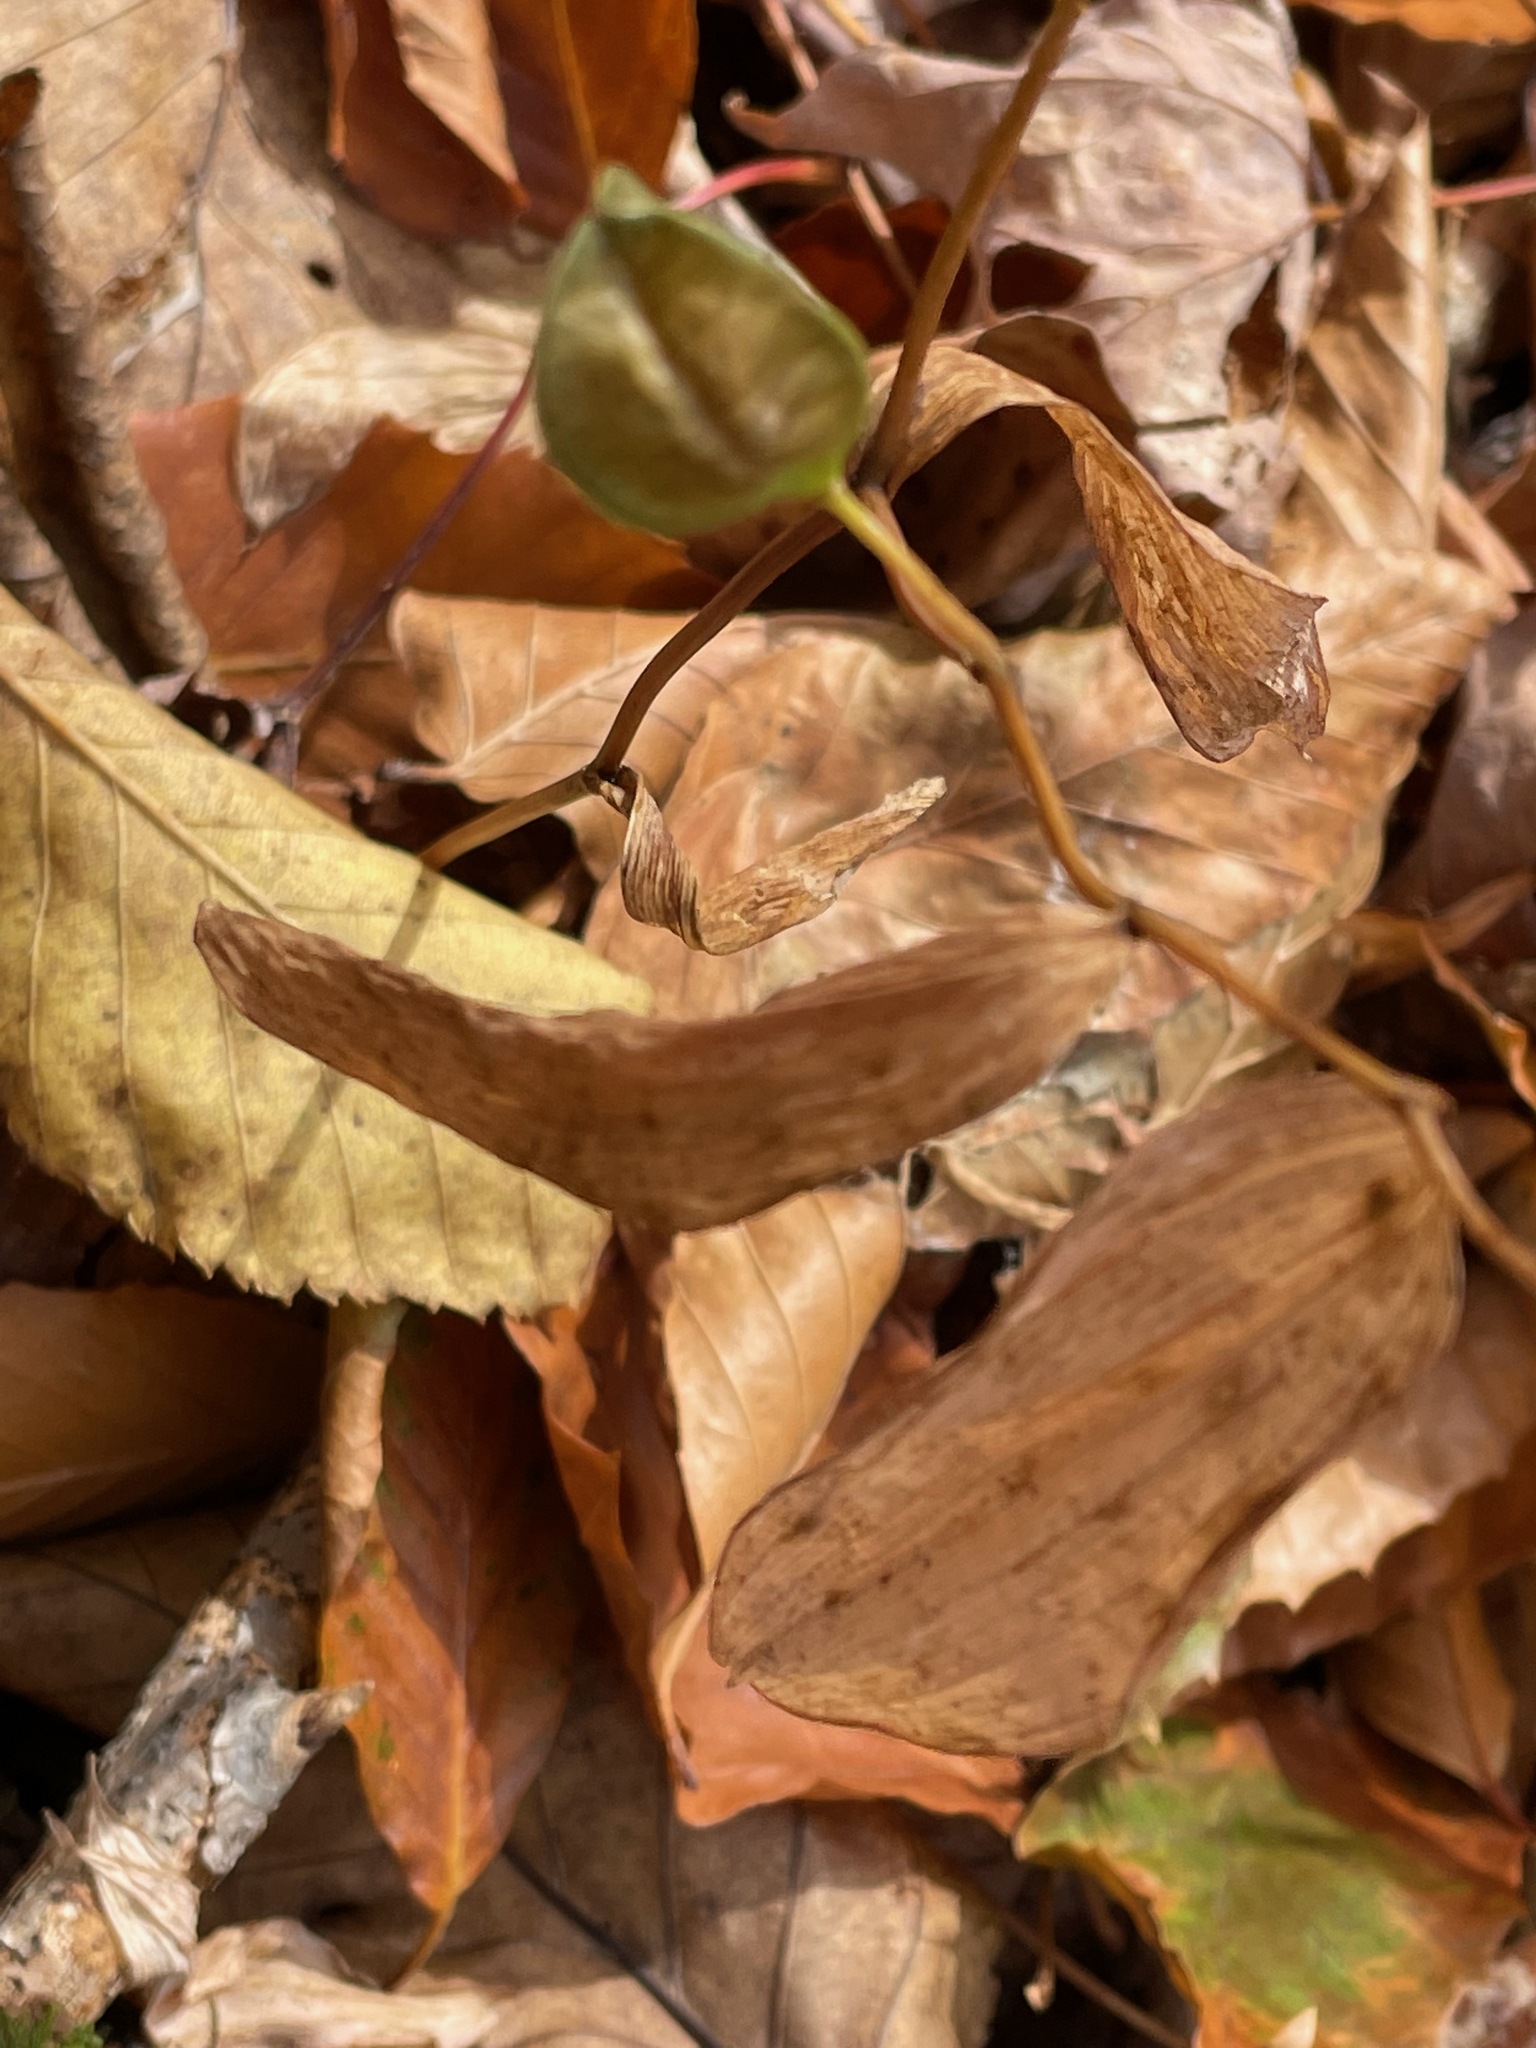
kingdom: Plantae
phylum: Tracheophyta
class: Liliopsida
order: Liliales
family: Colchicaceae
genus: Uvularia
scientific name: Uvularia sessilifolia
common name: Straw-lily
